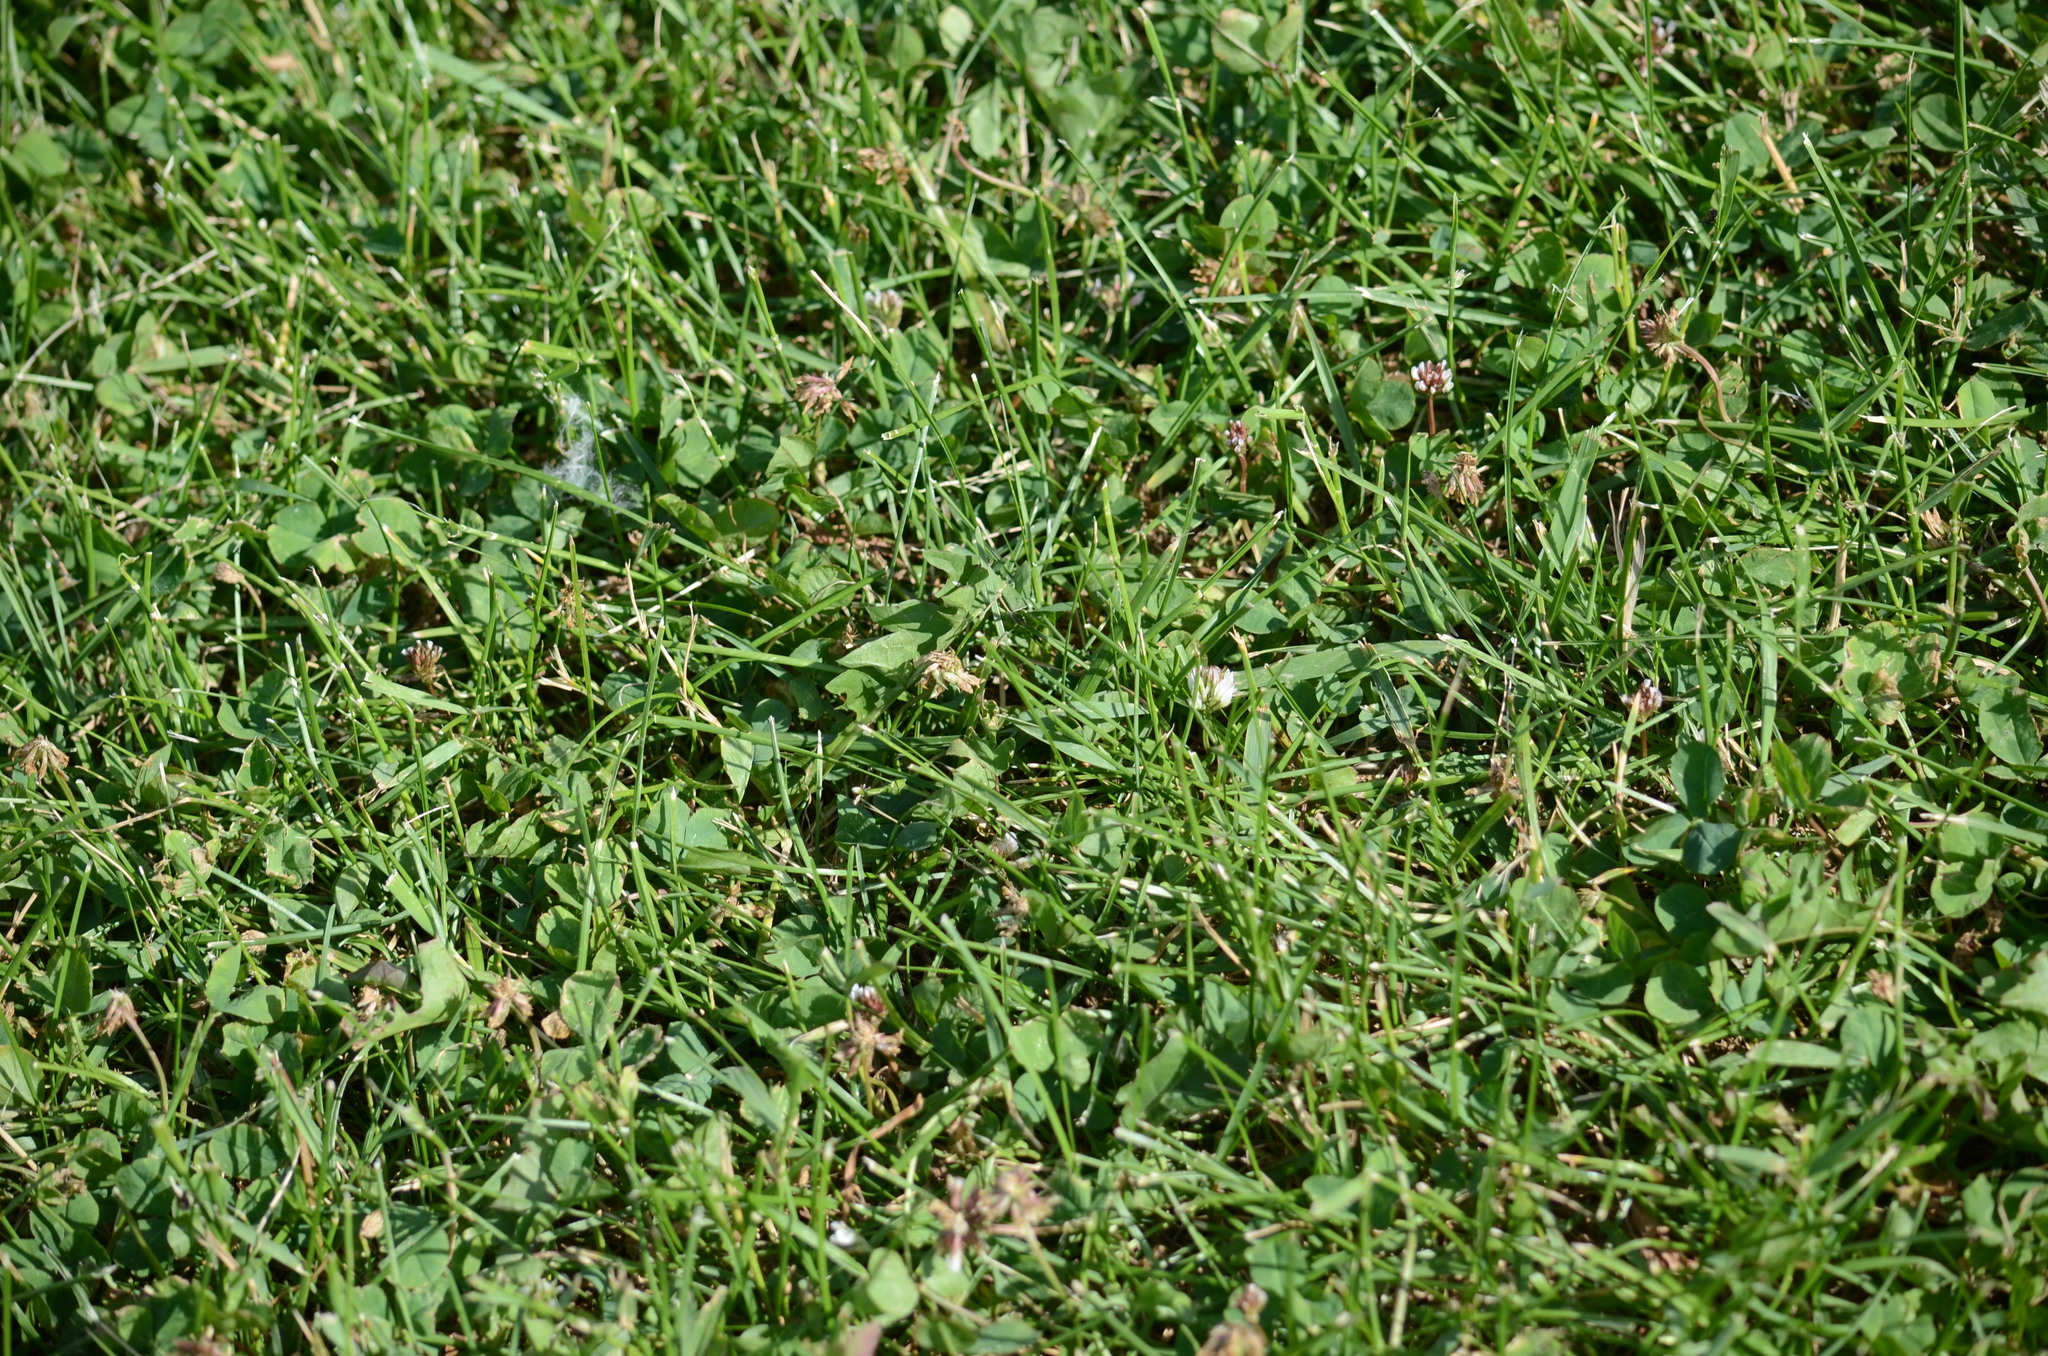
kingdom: Plantae
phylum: Tracheophyta
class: Magnoliopsida
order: Fabales
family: Fabaceae
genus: Trifolium
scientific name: Trifolium repens
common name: White clover
